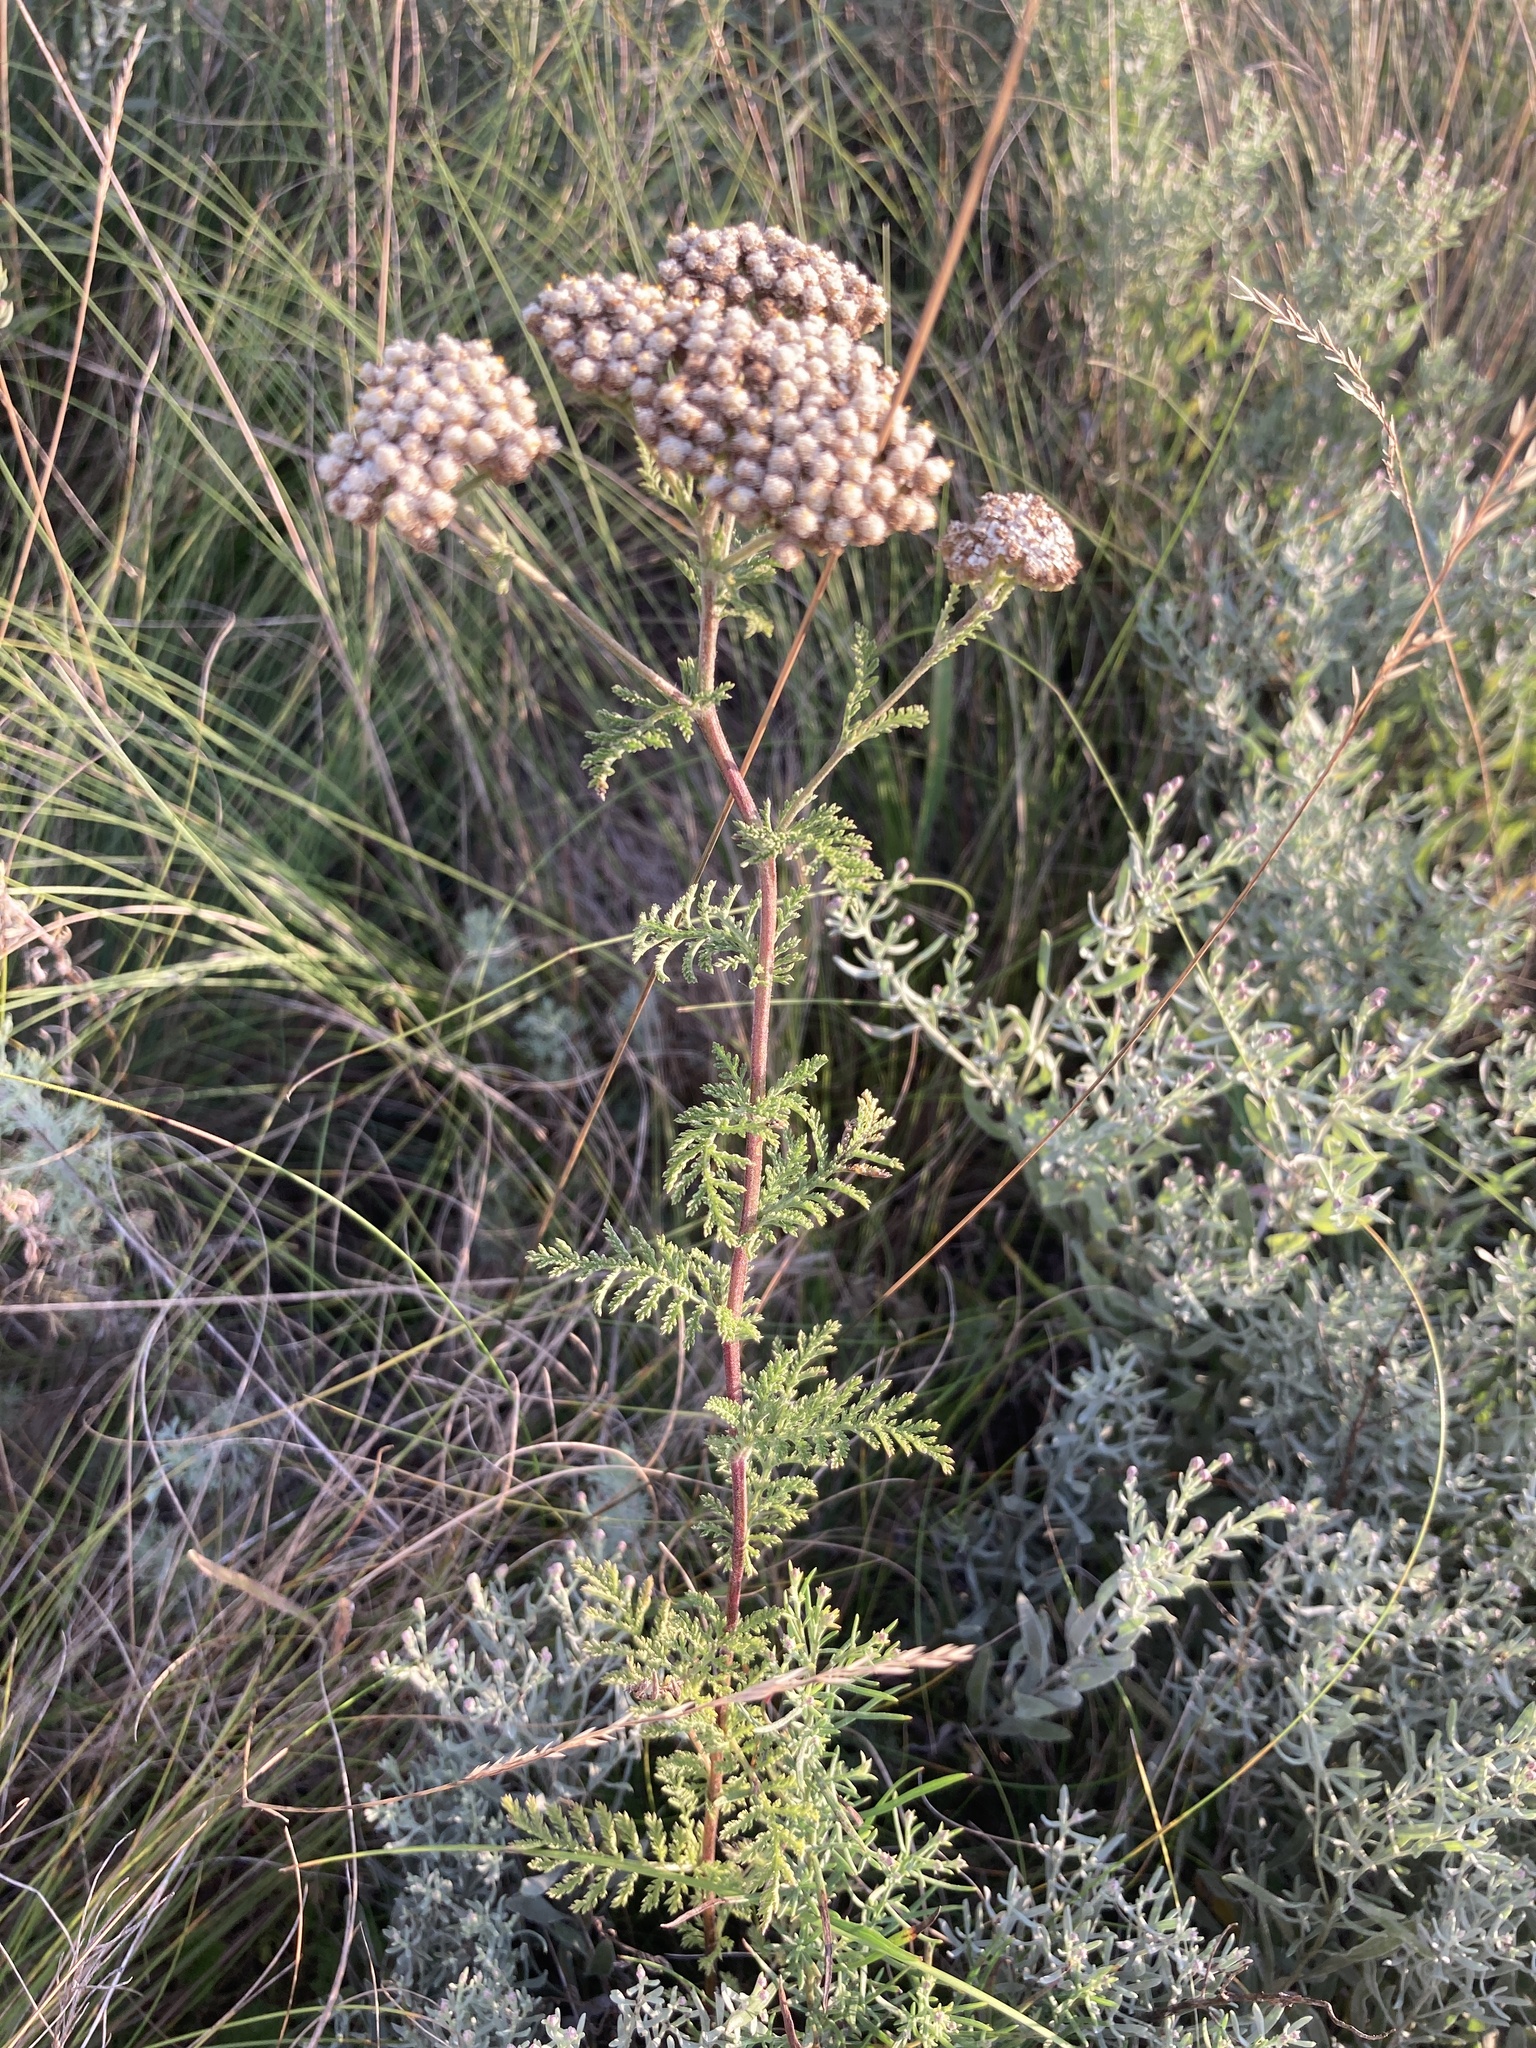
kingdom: Plantae
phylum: Tracheophyta
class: Magnoliopsida
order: Asterales
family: Asteraceae
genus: Achillea
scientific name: Achillea nobilis
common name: Noble yarrow
